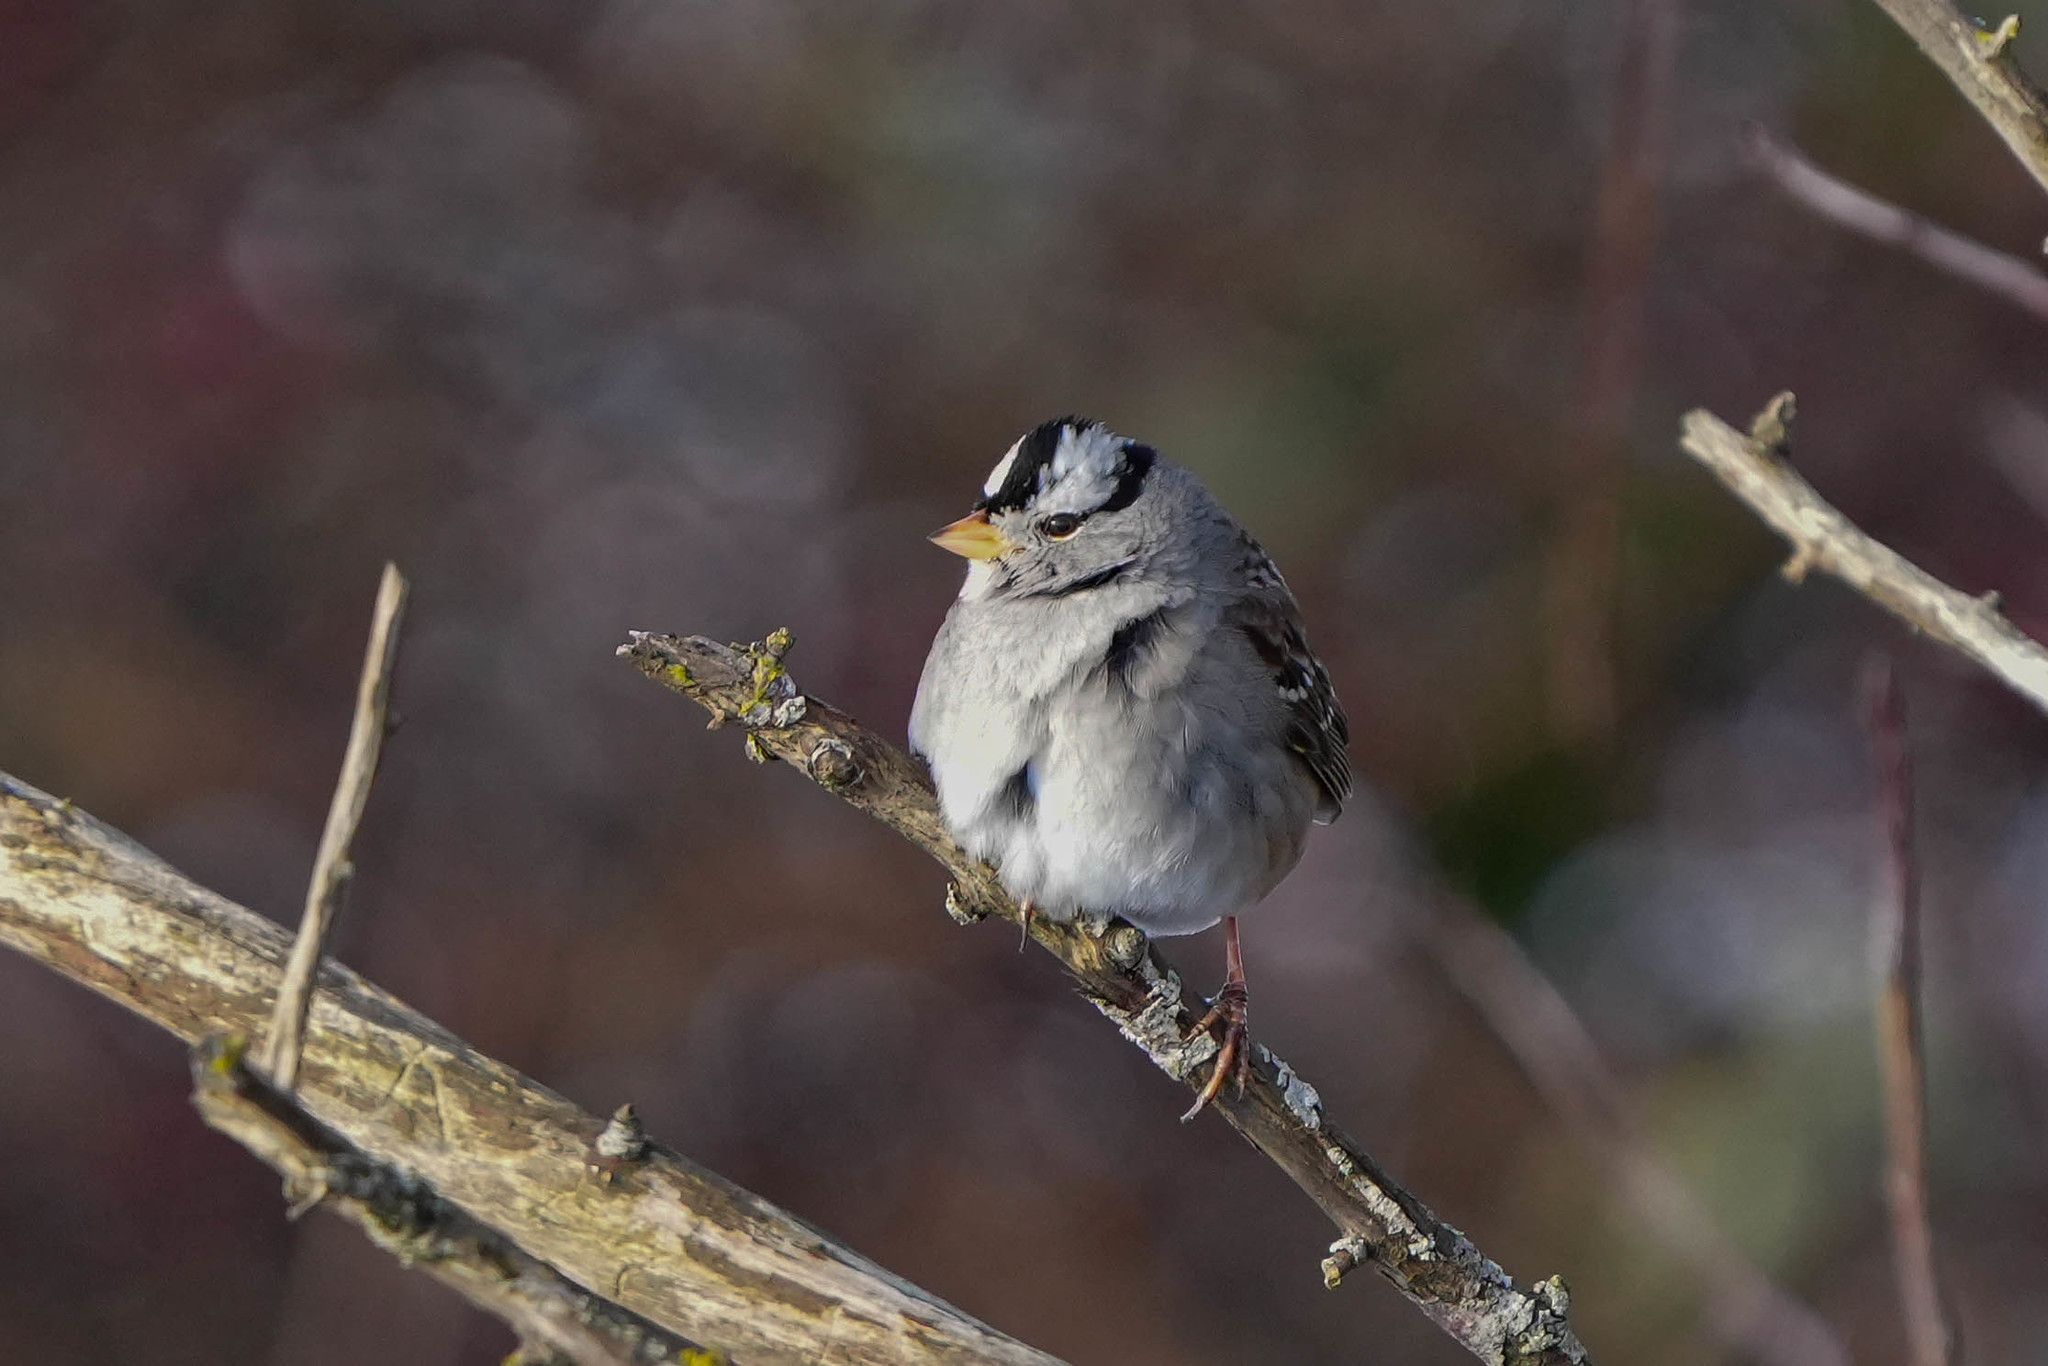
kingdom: Animalia
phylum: Chordata
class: Aves
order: Passeriformes
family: Passerellidae
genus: Zonotrichia
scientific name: Zonotrichia leucophrys
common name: White-crowned sparrow
